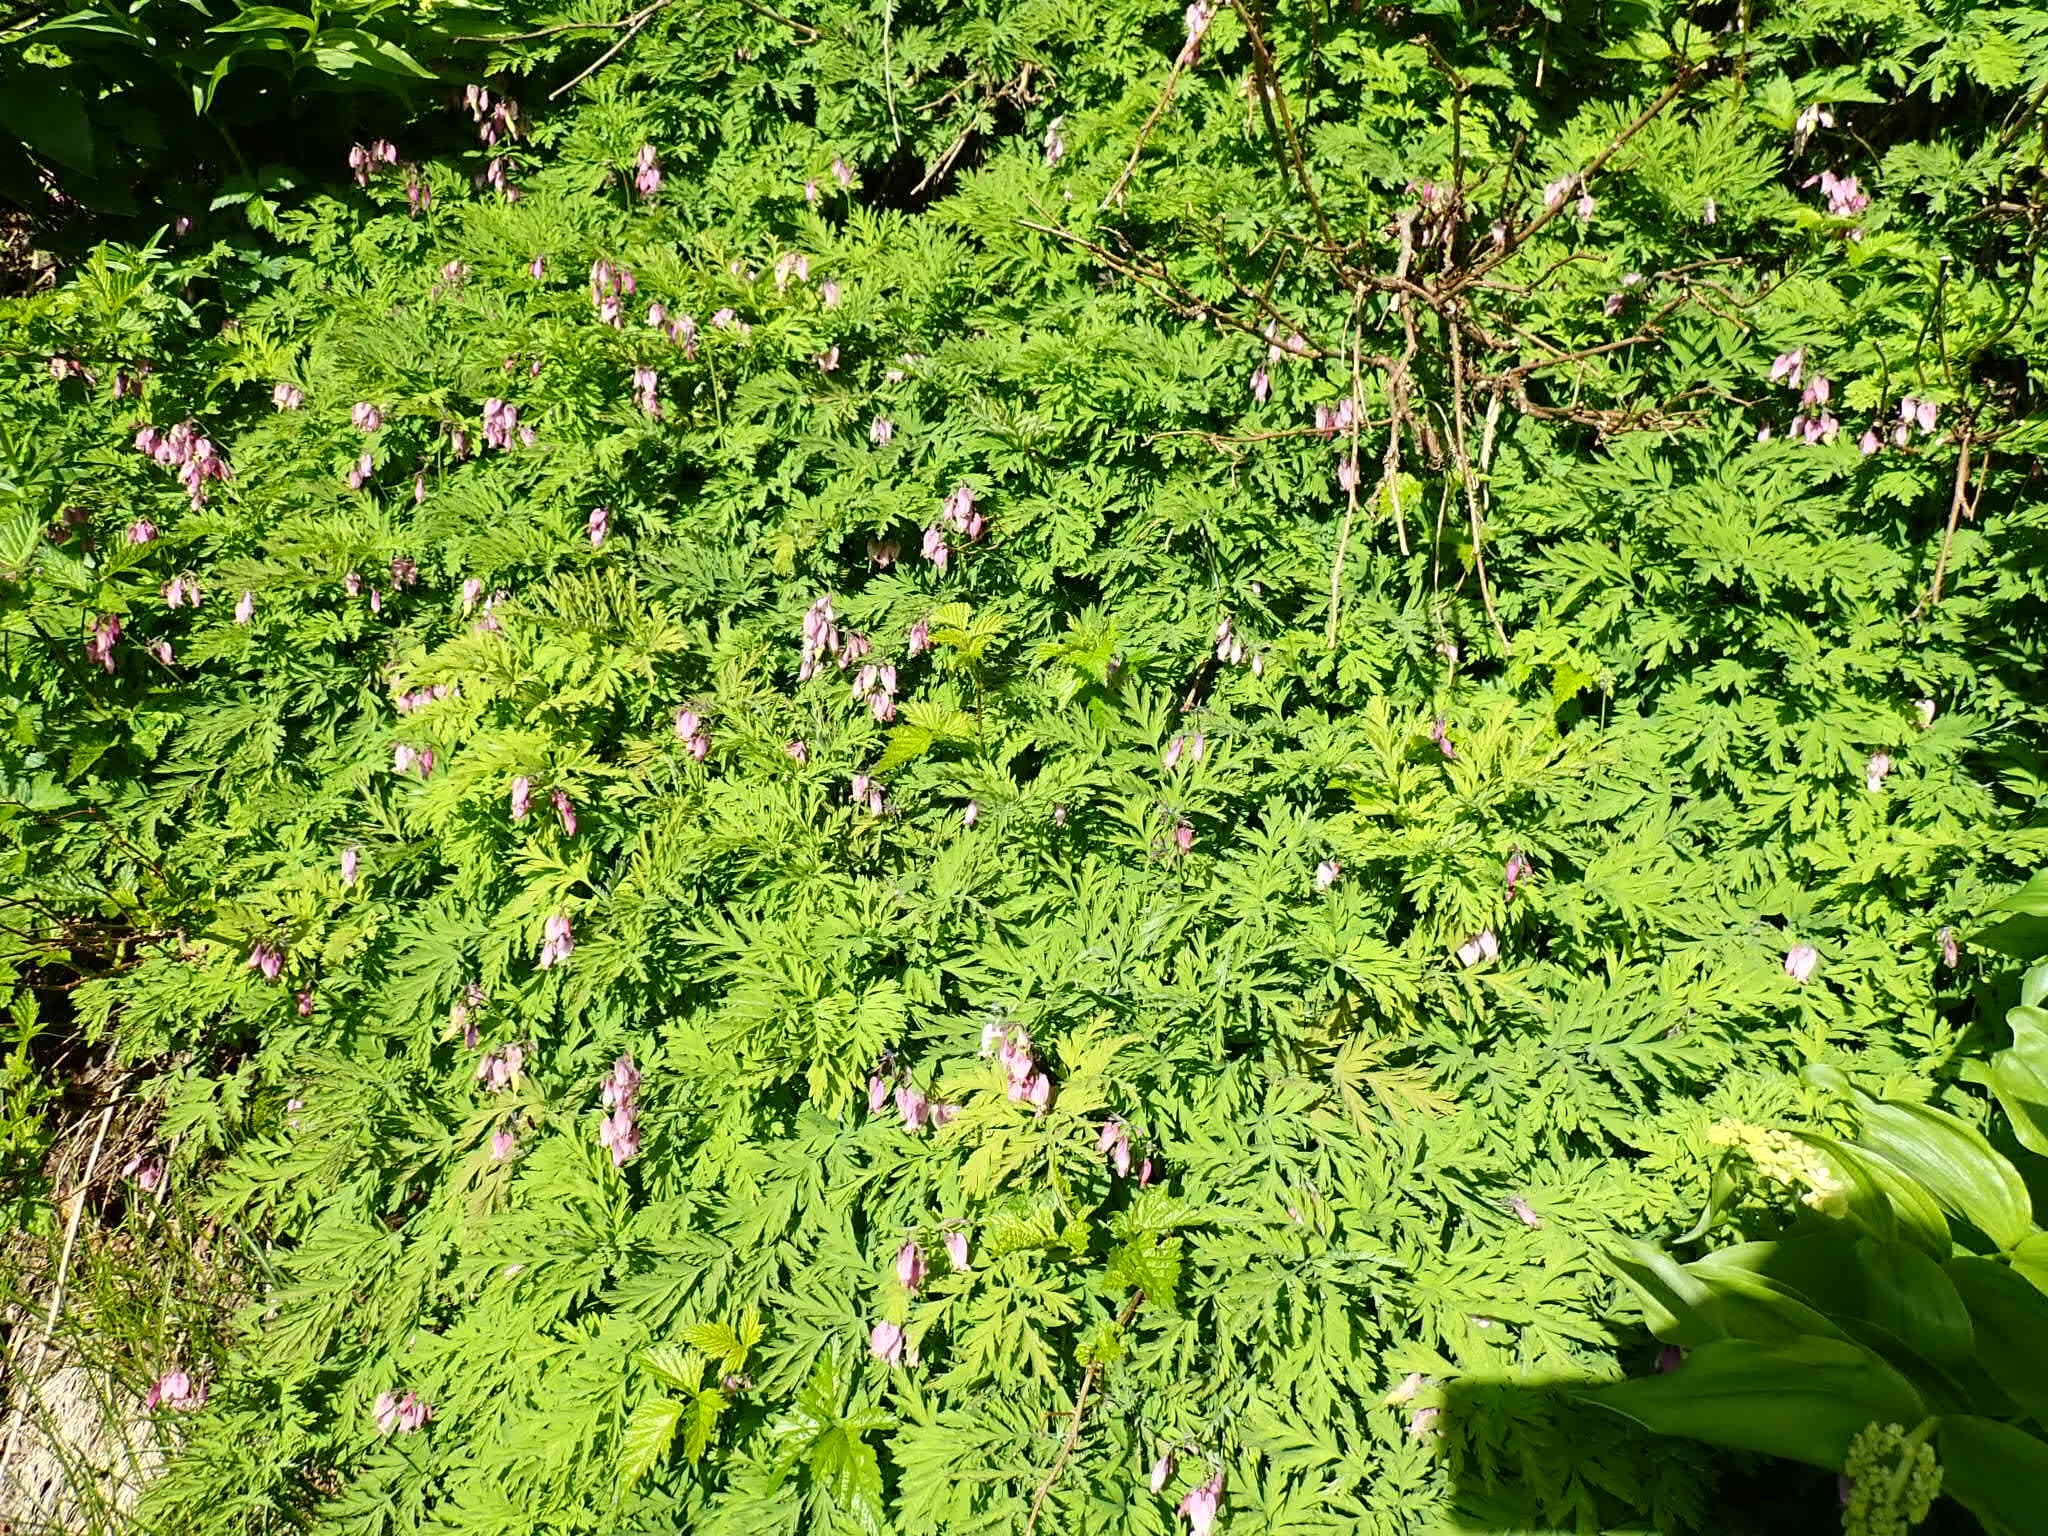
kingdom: Plantae
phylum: Tracheophyta
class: Magnoliopsida
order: Ranunculales
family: Papaveraceae
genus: Dicentra
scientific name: Dicentra formosa
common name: Bleeding-heart
